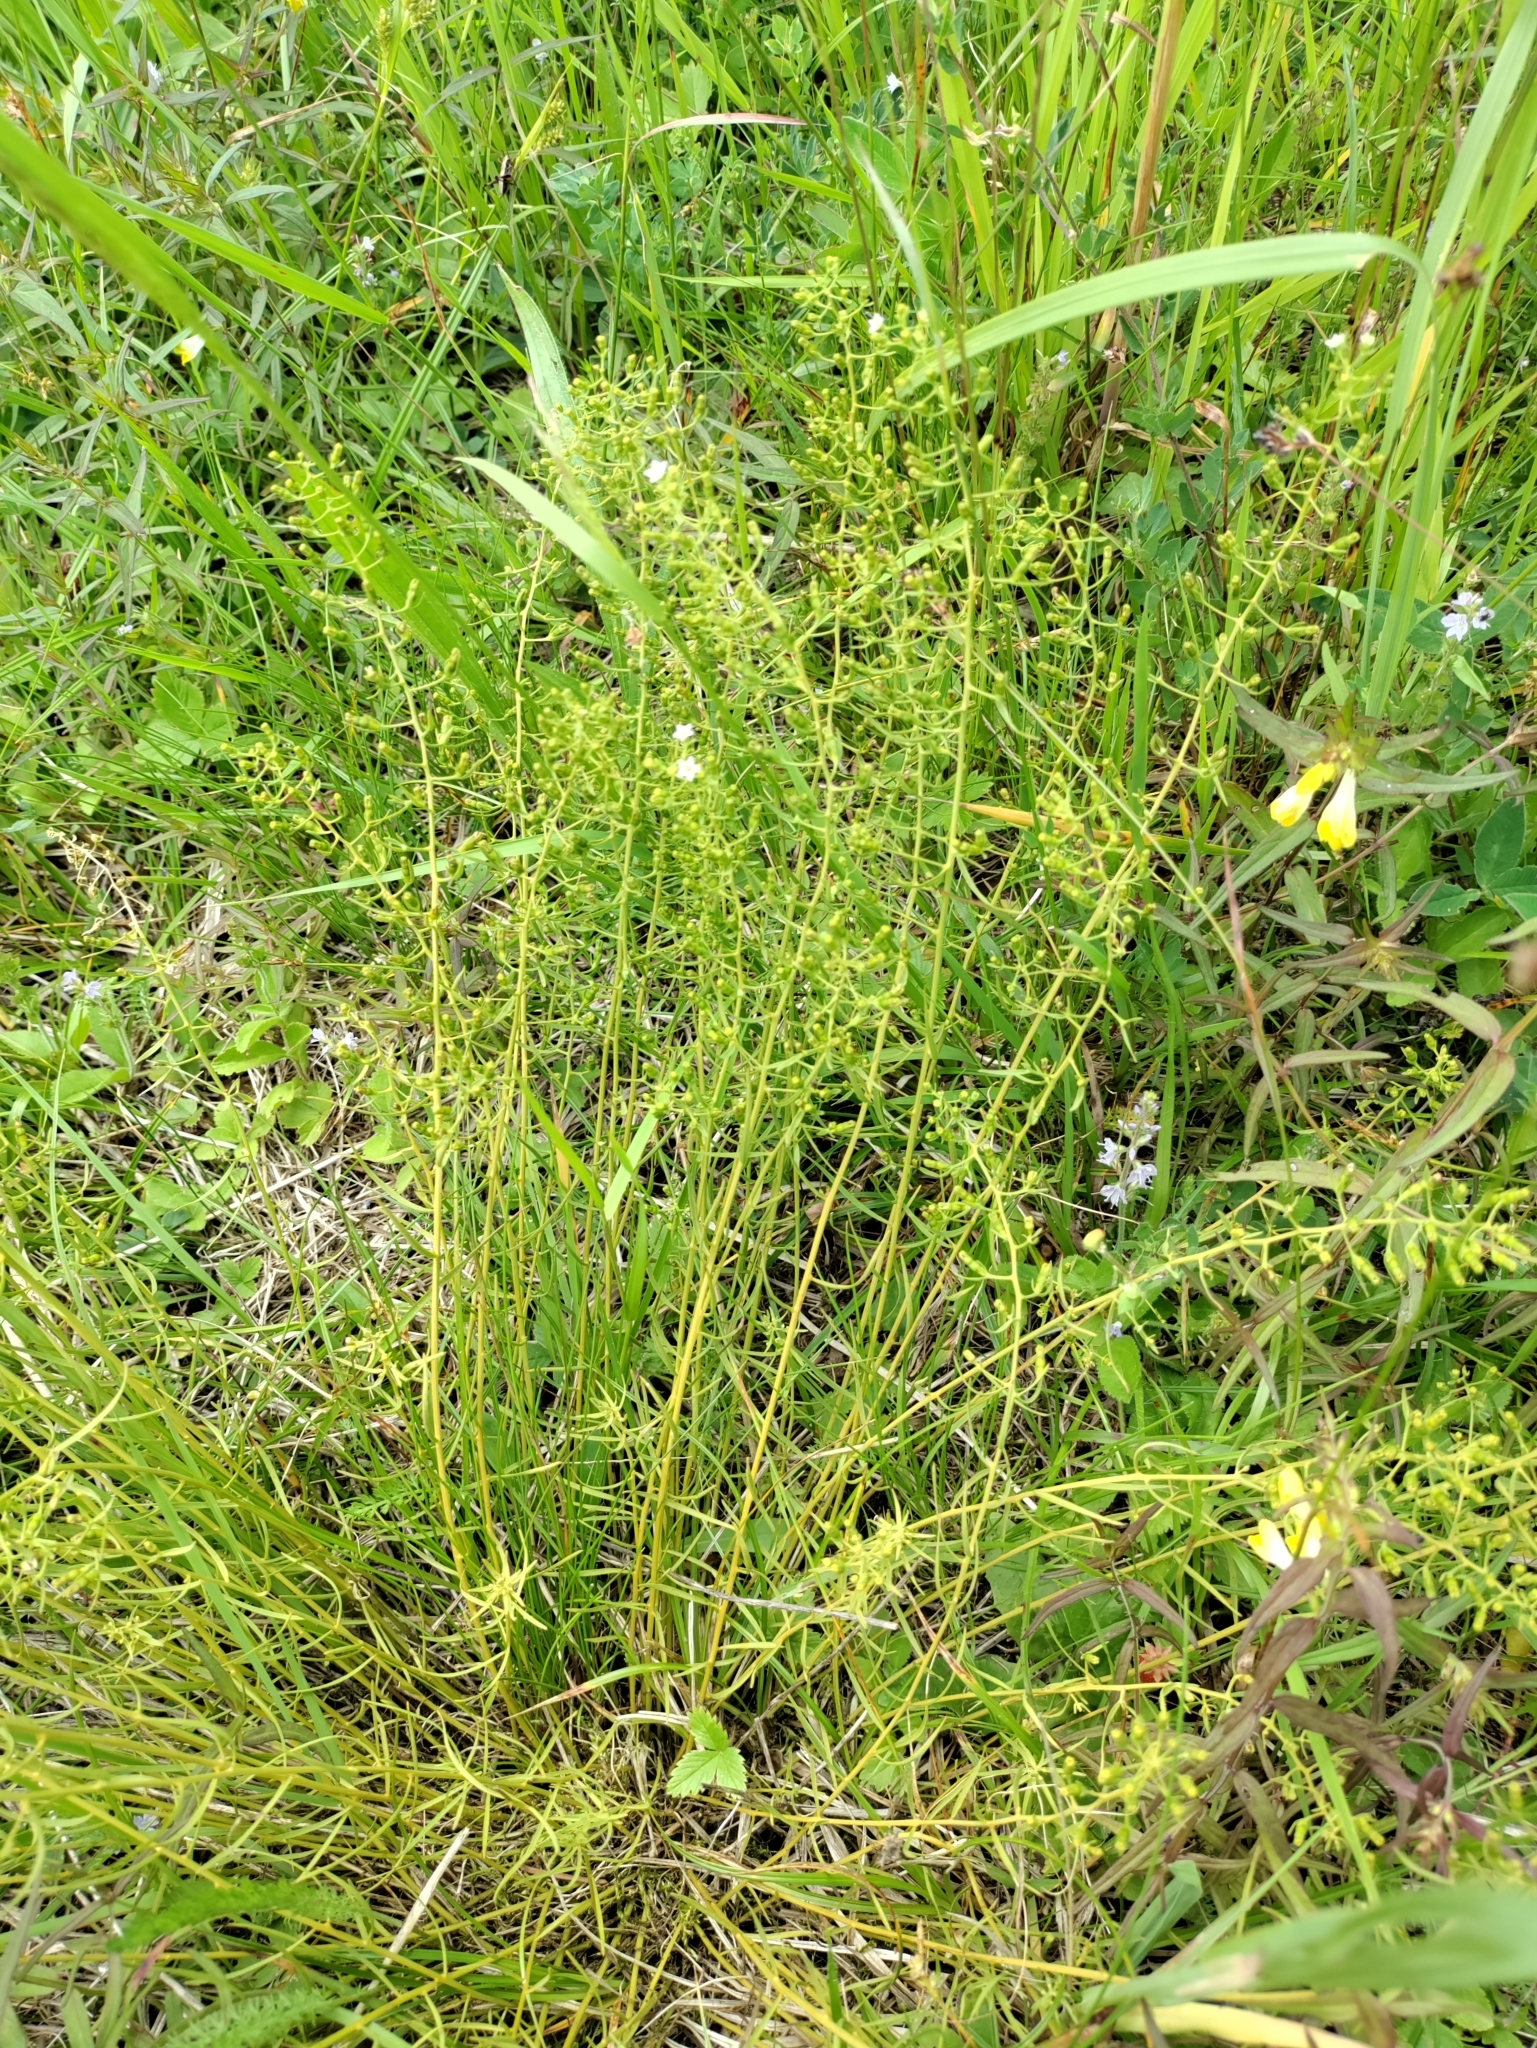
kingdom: Plantae
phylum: Tracheophyta
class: Magnoliopsida
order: Santalales
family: Thesiaceae
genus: Thesium
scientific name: Thesium pyrenaicum
